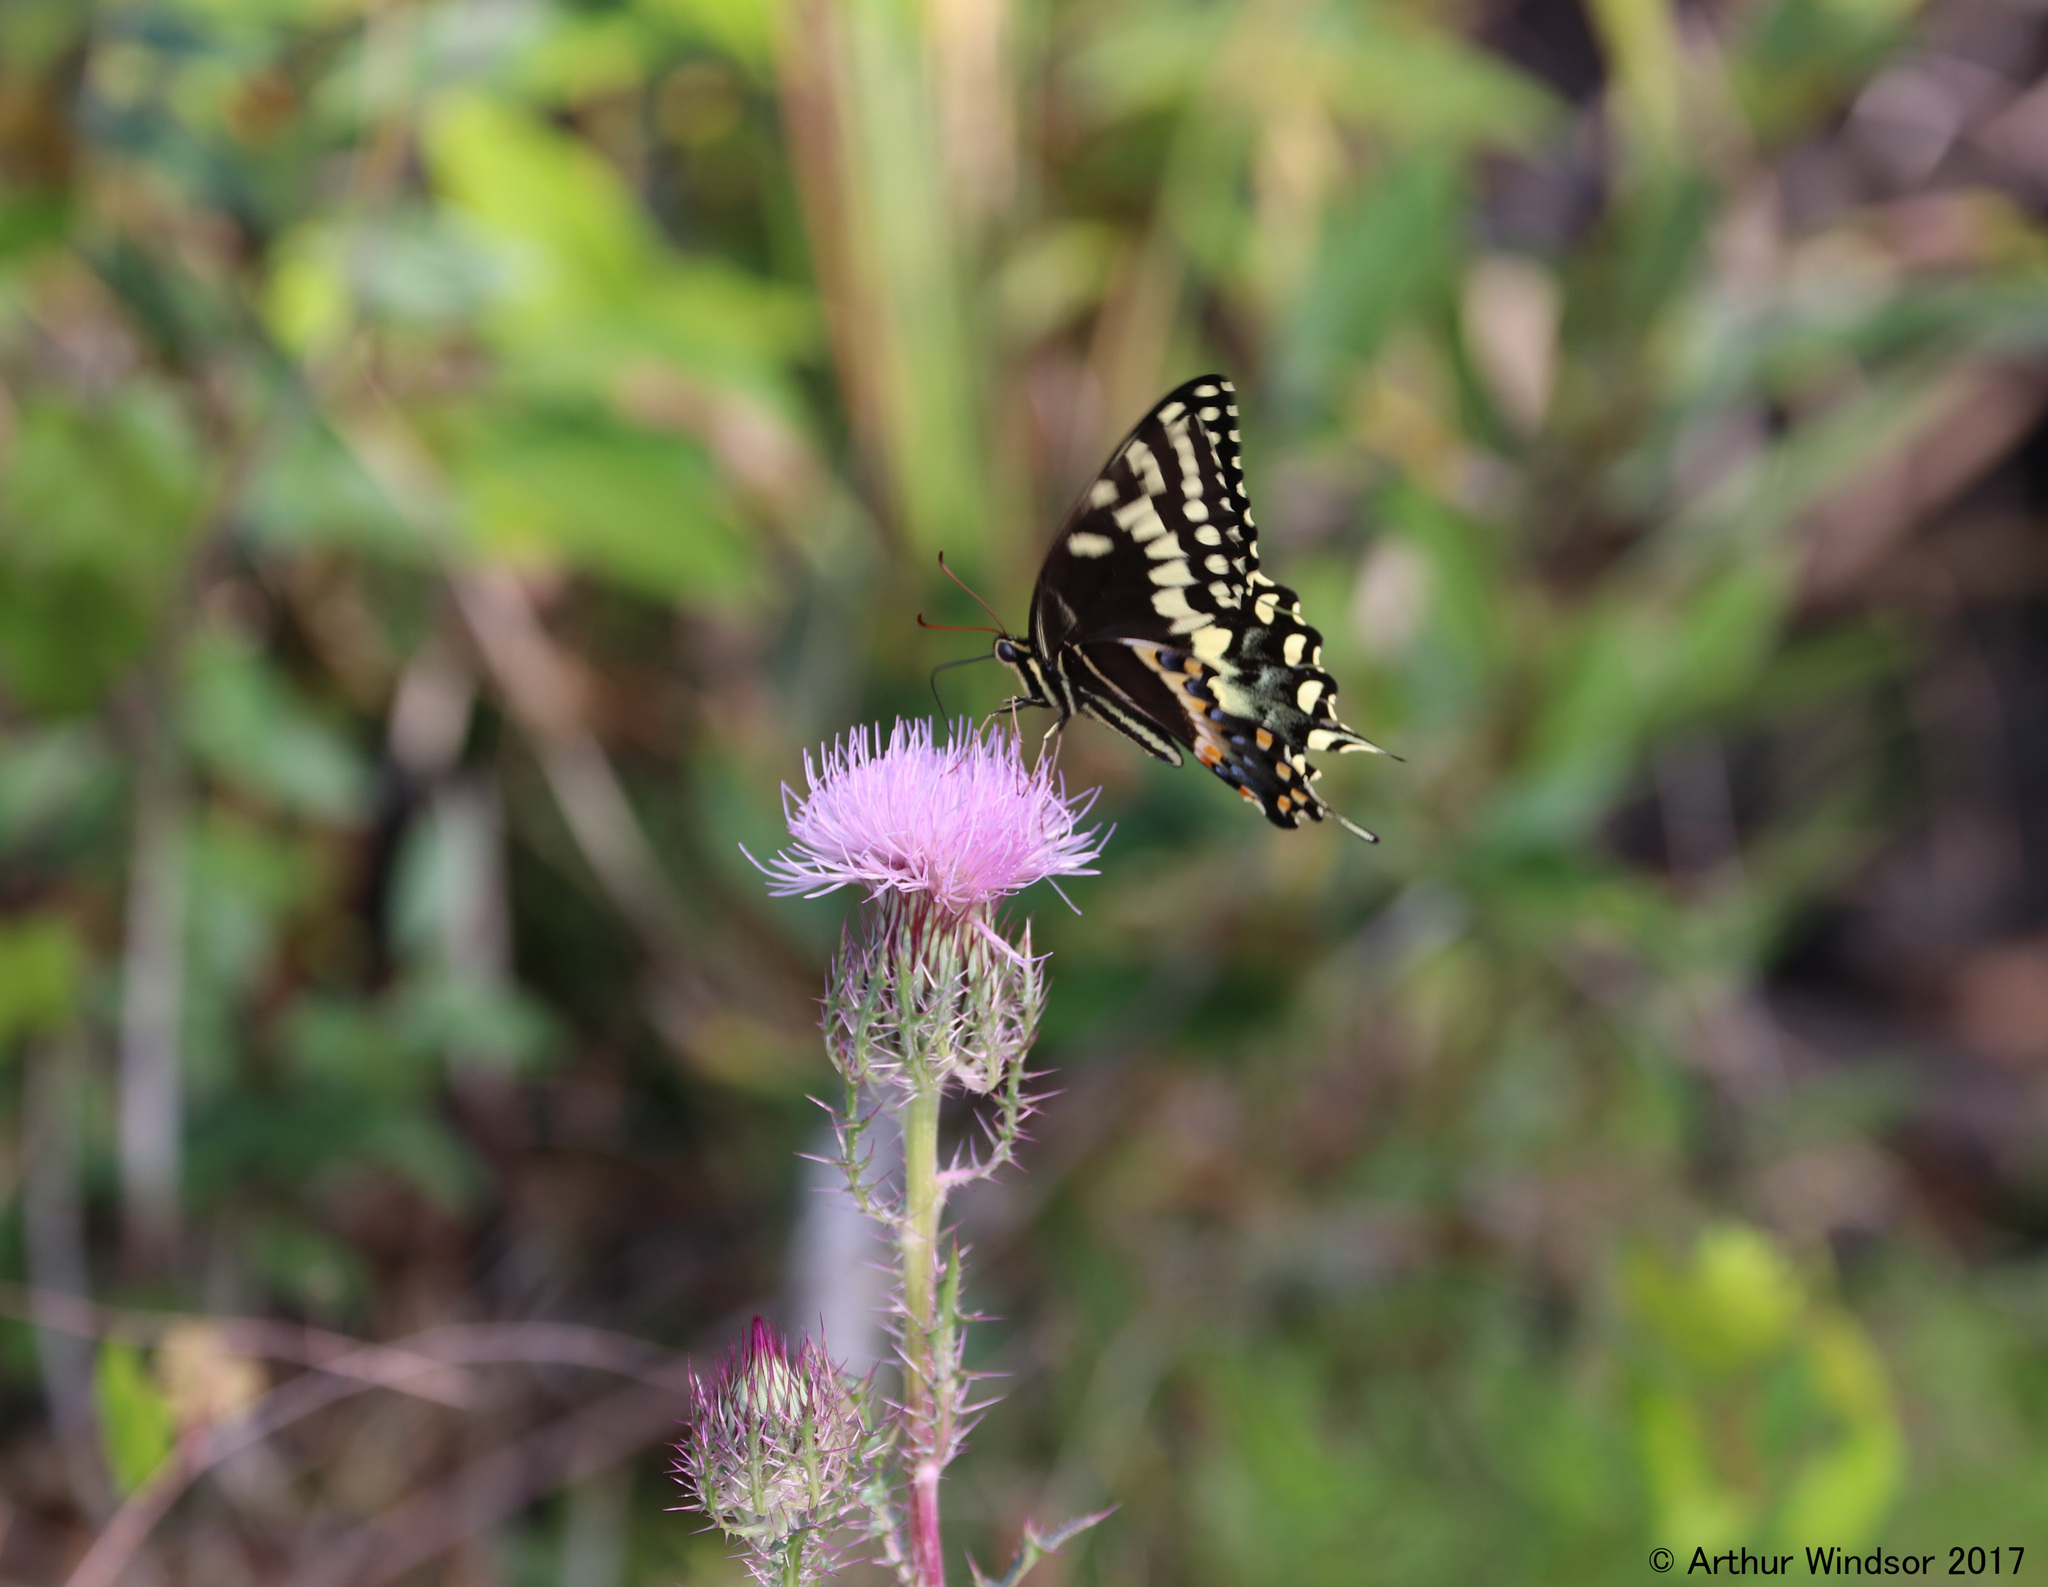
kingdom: Animalia
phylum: Arthropoda
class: Insecta
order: Lepidoptera
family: Papilionidae
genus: Papilio
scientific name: Papilio palamedes
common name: Palamedes swallowtail
